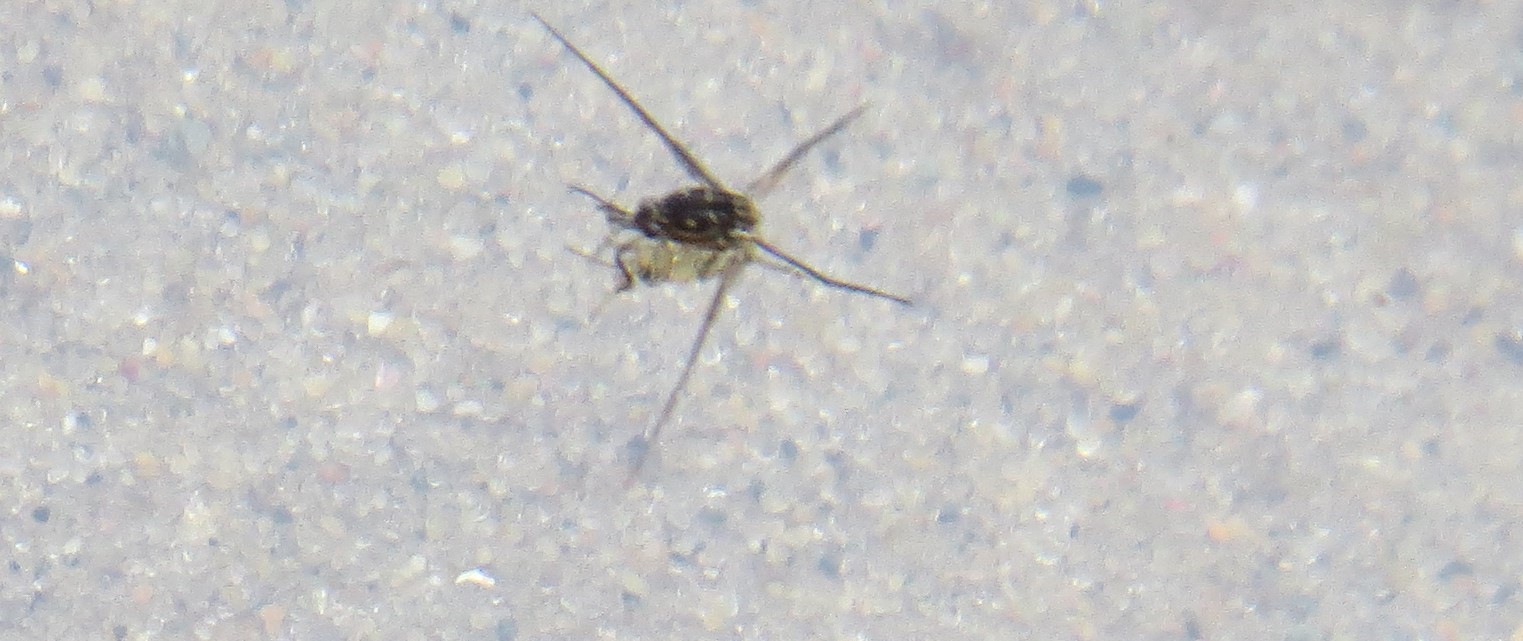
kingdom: Animalia
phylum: Arthropoda
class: Insecta
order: Hemiptera
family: Gerridae
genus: Trepobates
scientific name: Trepobates
